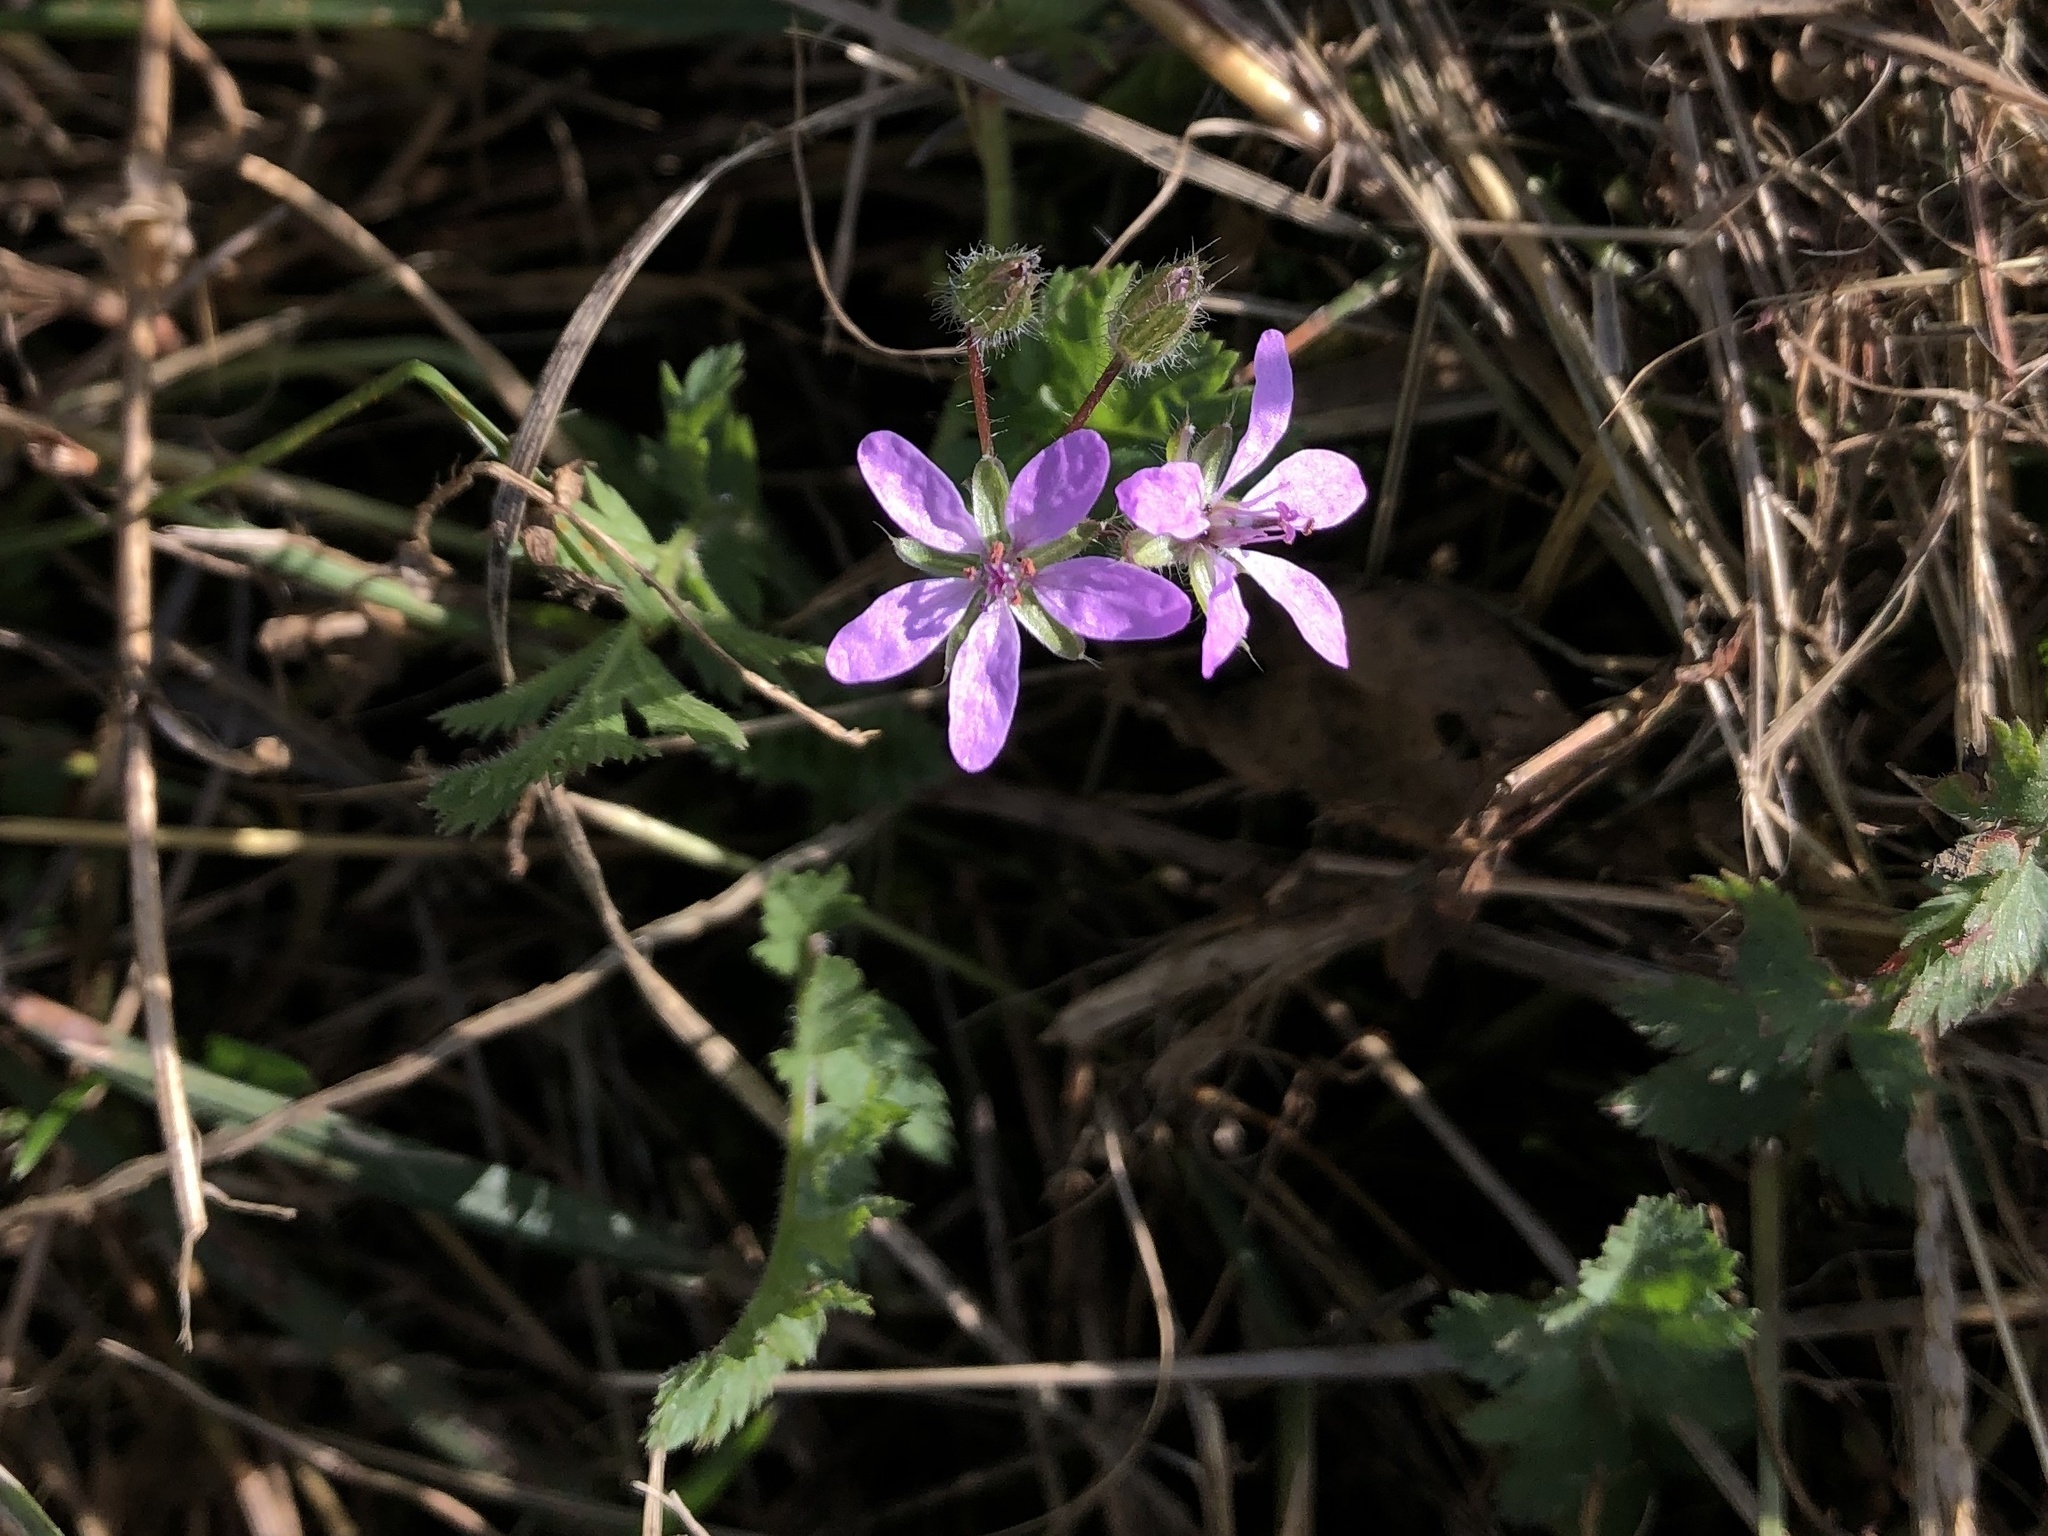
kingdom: Plantae
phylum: Tracheophyta
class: Magnoliopsida
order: Geraniales
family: Geraniaceae
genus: Erodium
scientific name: Erodium cicutarium
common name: Common stork's-bill
